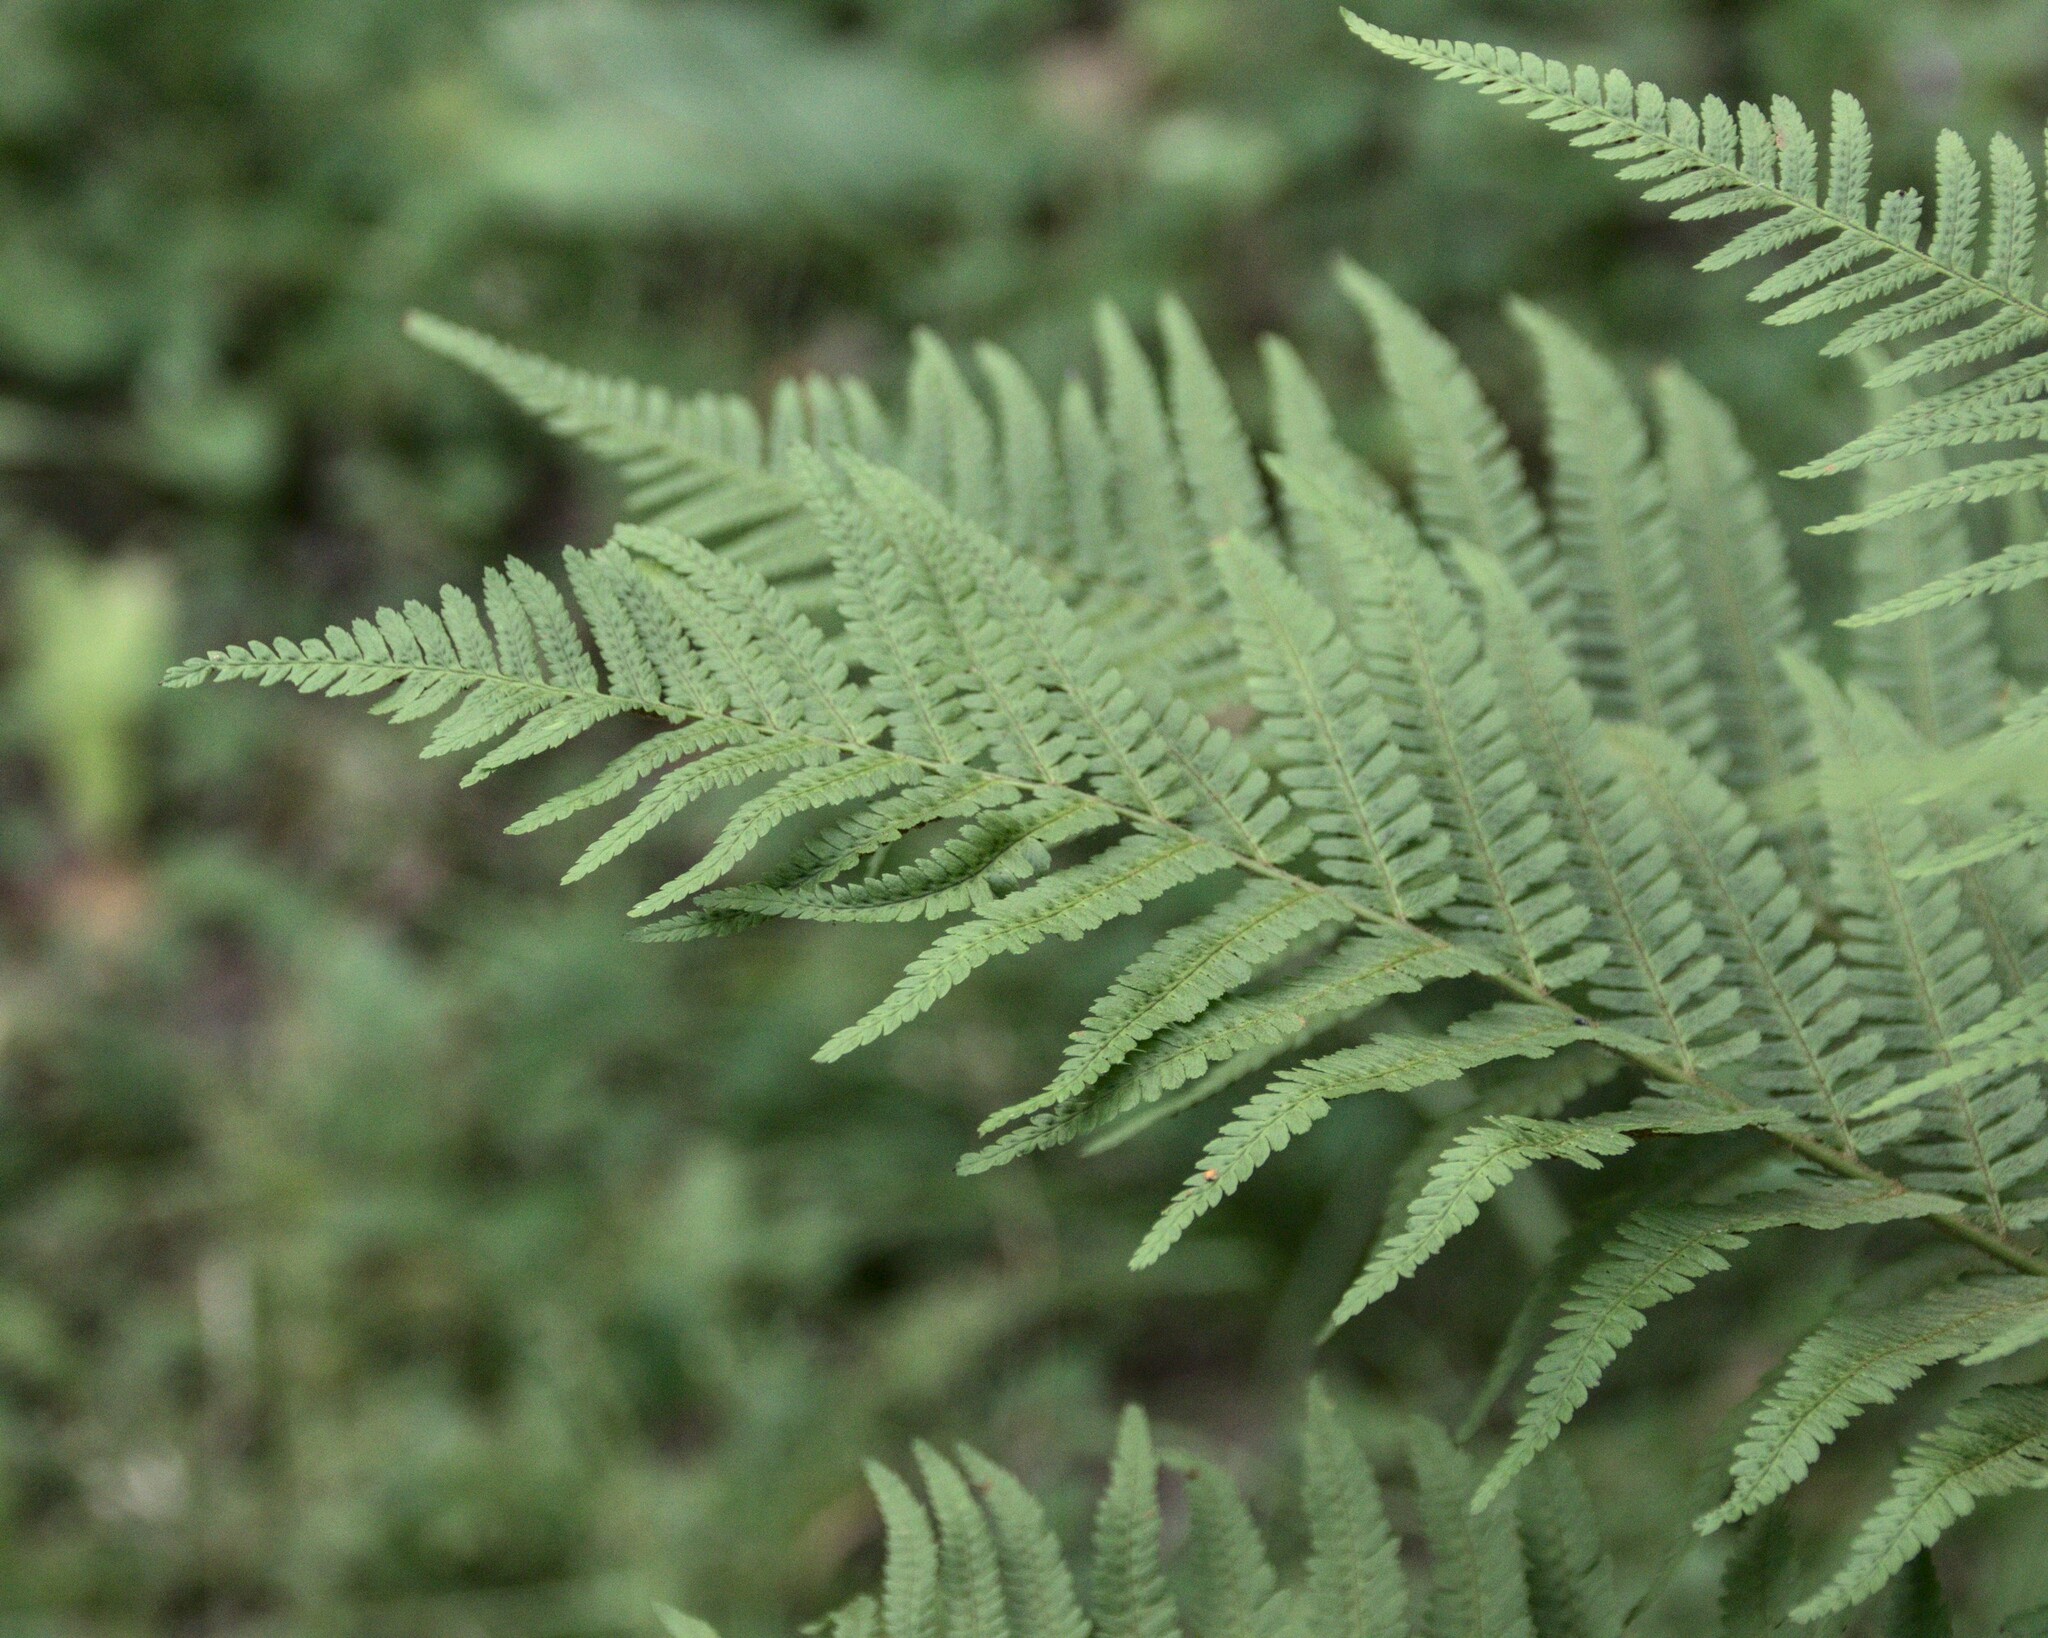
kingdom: Plantae
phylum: Tracheophyta
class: Polypodiopsida
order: Polypodiales
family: Dryopteridaceae
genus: Dryopteris
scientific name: Dryopteris filix-mas
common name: Male fern
